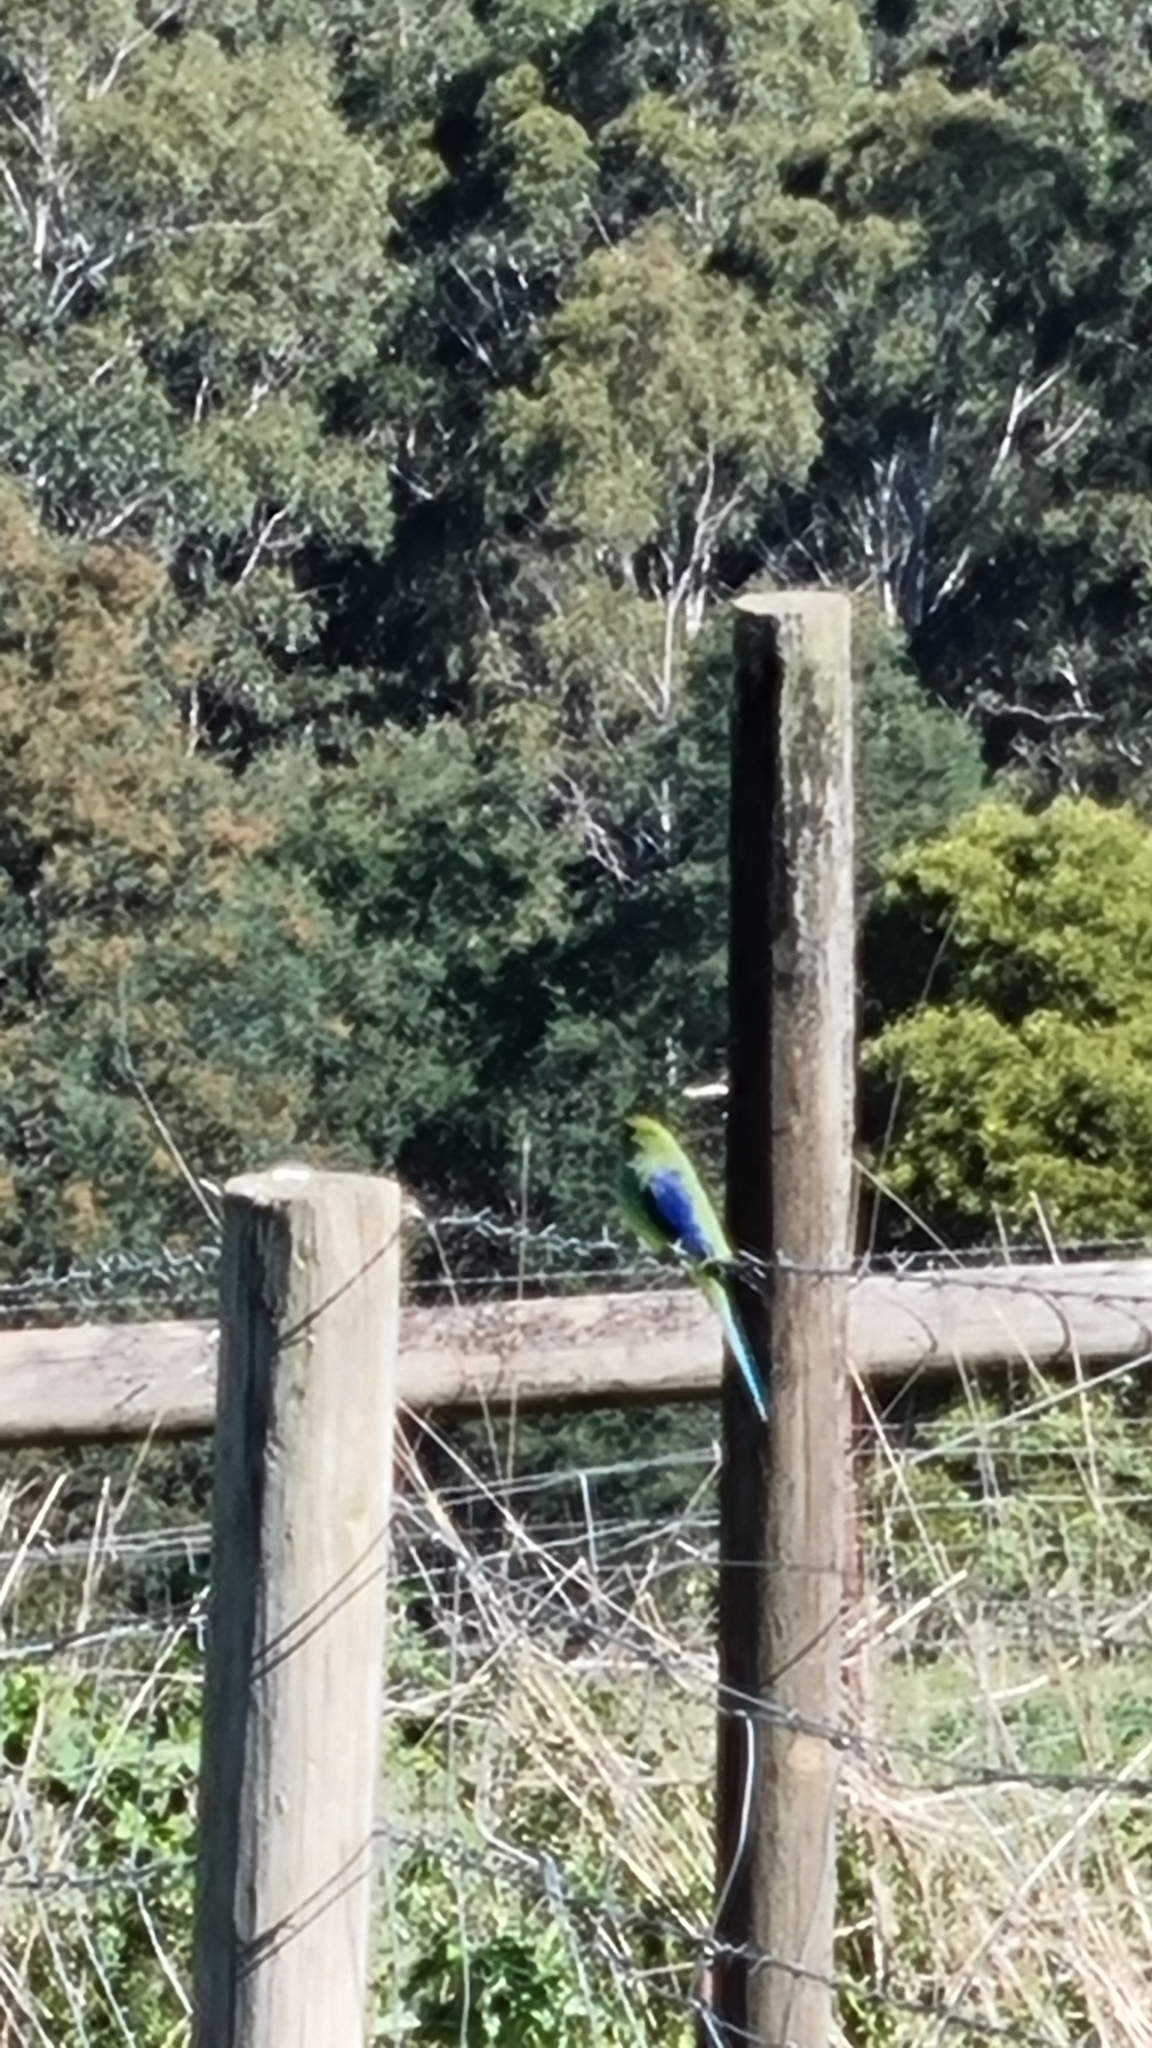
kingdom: Animalia
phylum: Chordata
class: Aves
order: Psittaciformes
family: Psittacidae
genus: Neophema
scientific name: Neophema chrysostoma
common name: Blue-winged parrot
